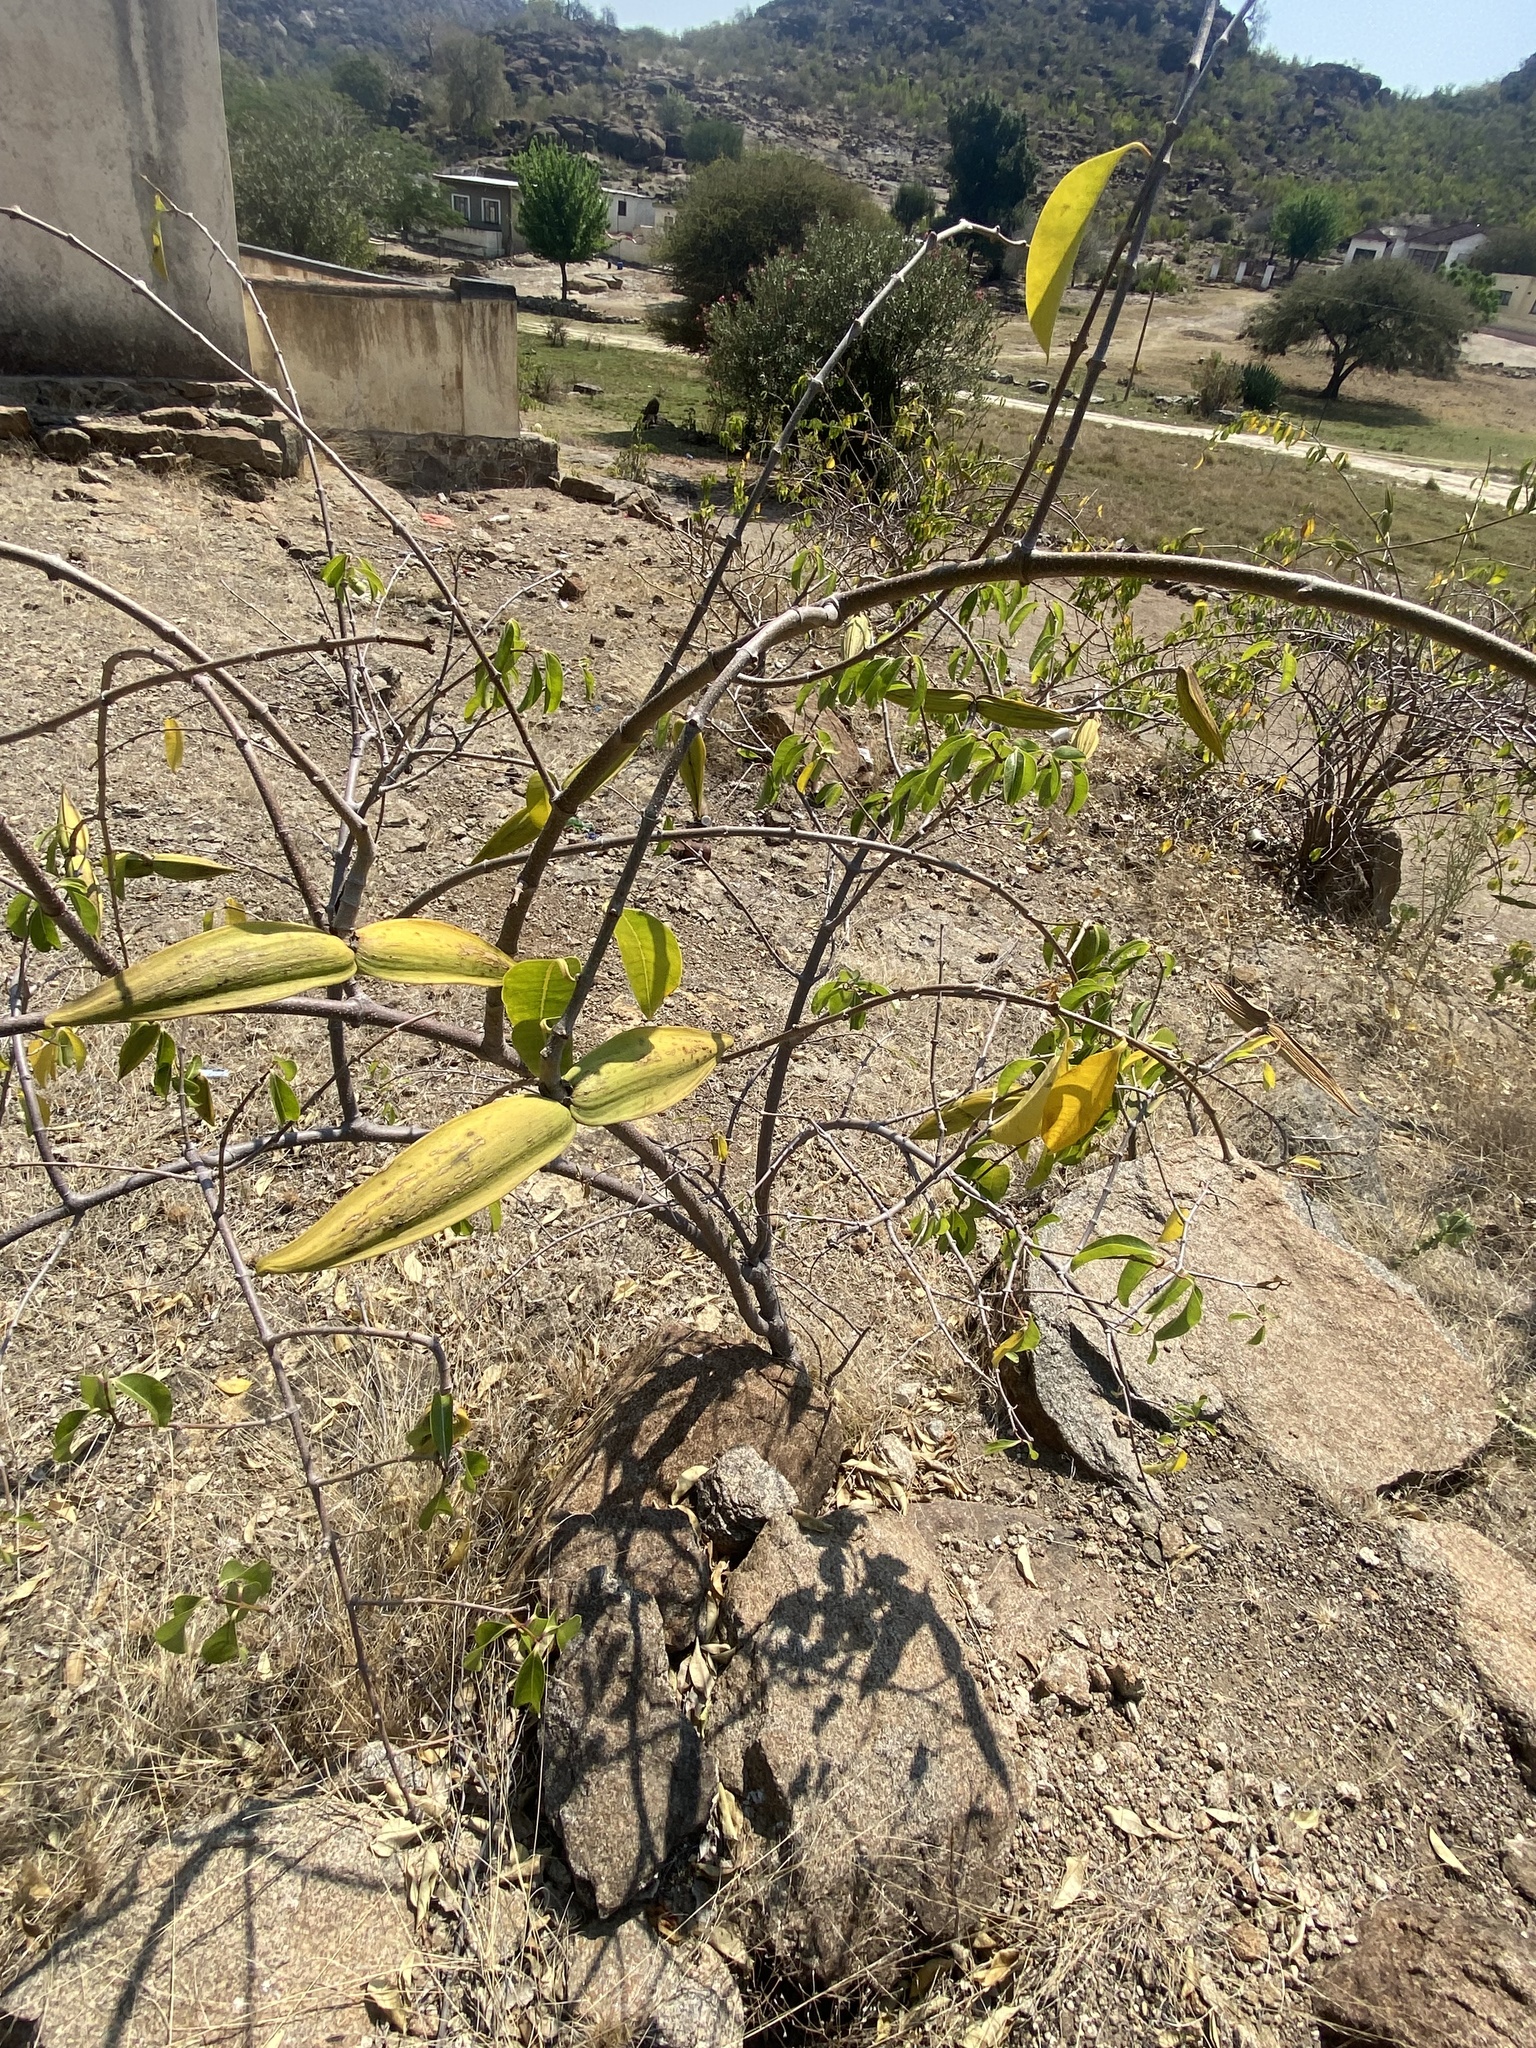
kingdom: Plantae
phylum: Tracheophyta
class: Magnoliopsida
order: Gentianales
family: Apocynaceae
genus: Cryptostegia
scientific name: Cryptostegia madagascariensis
